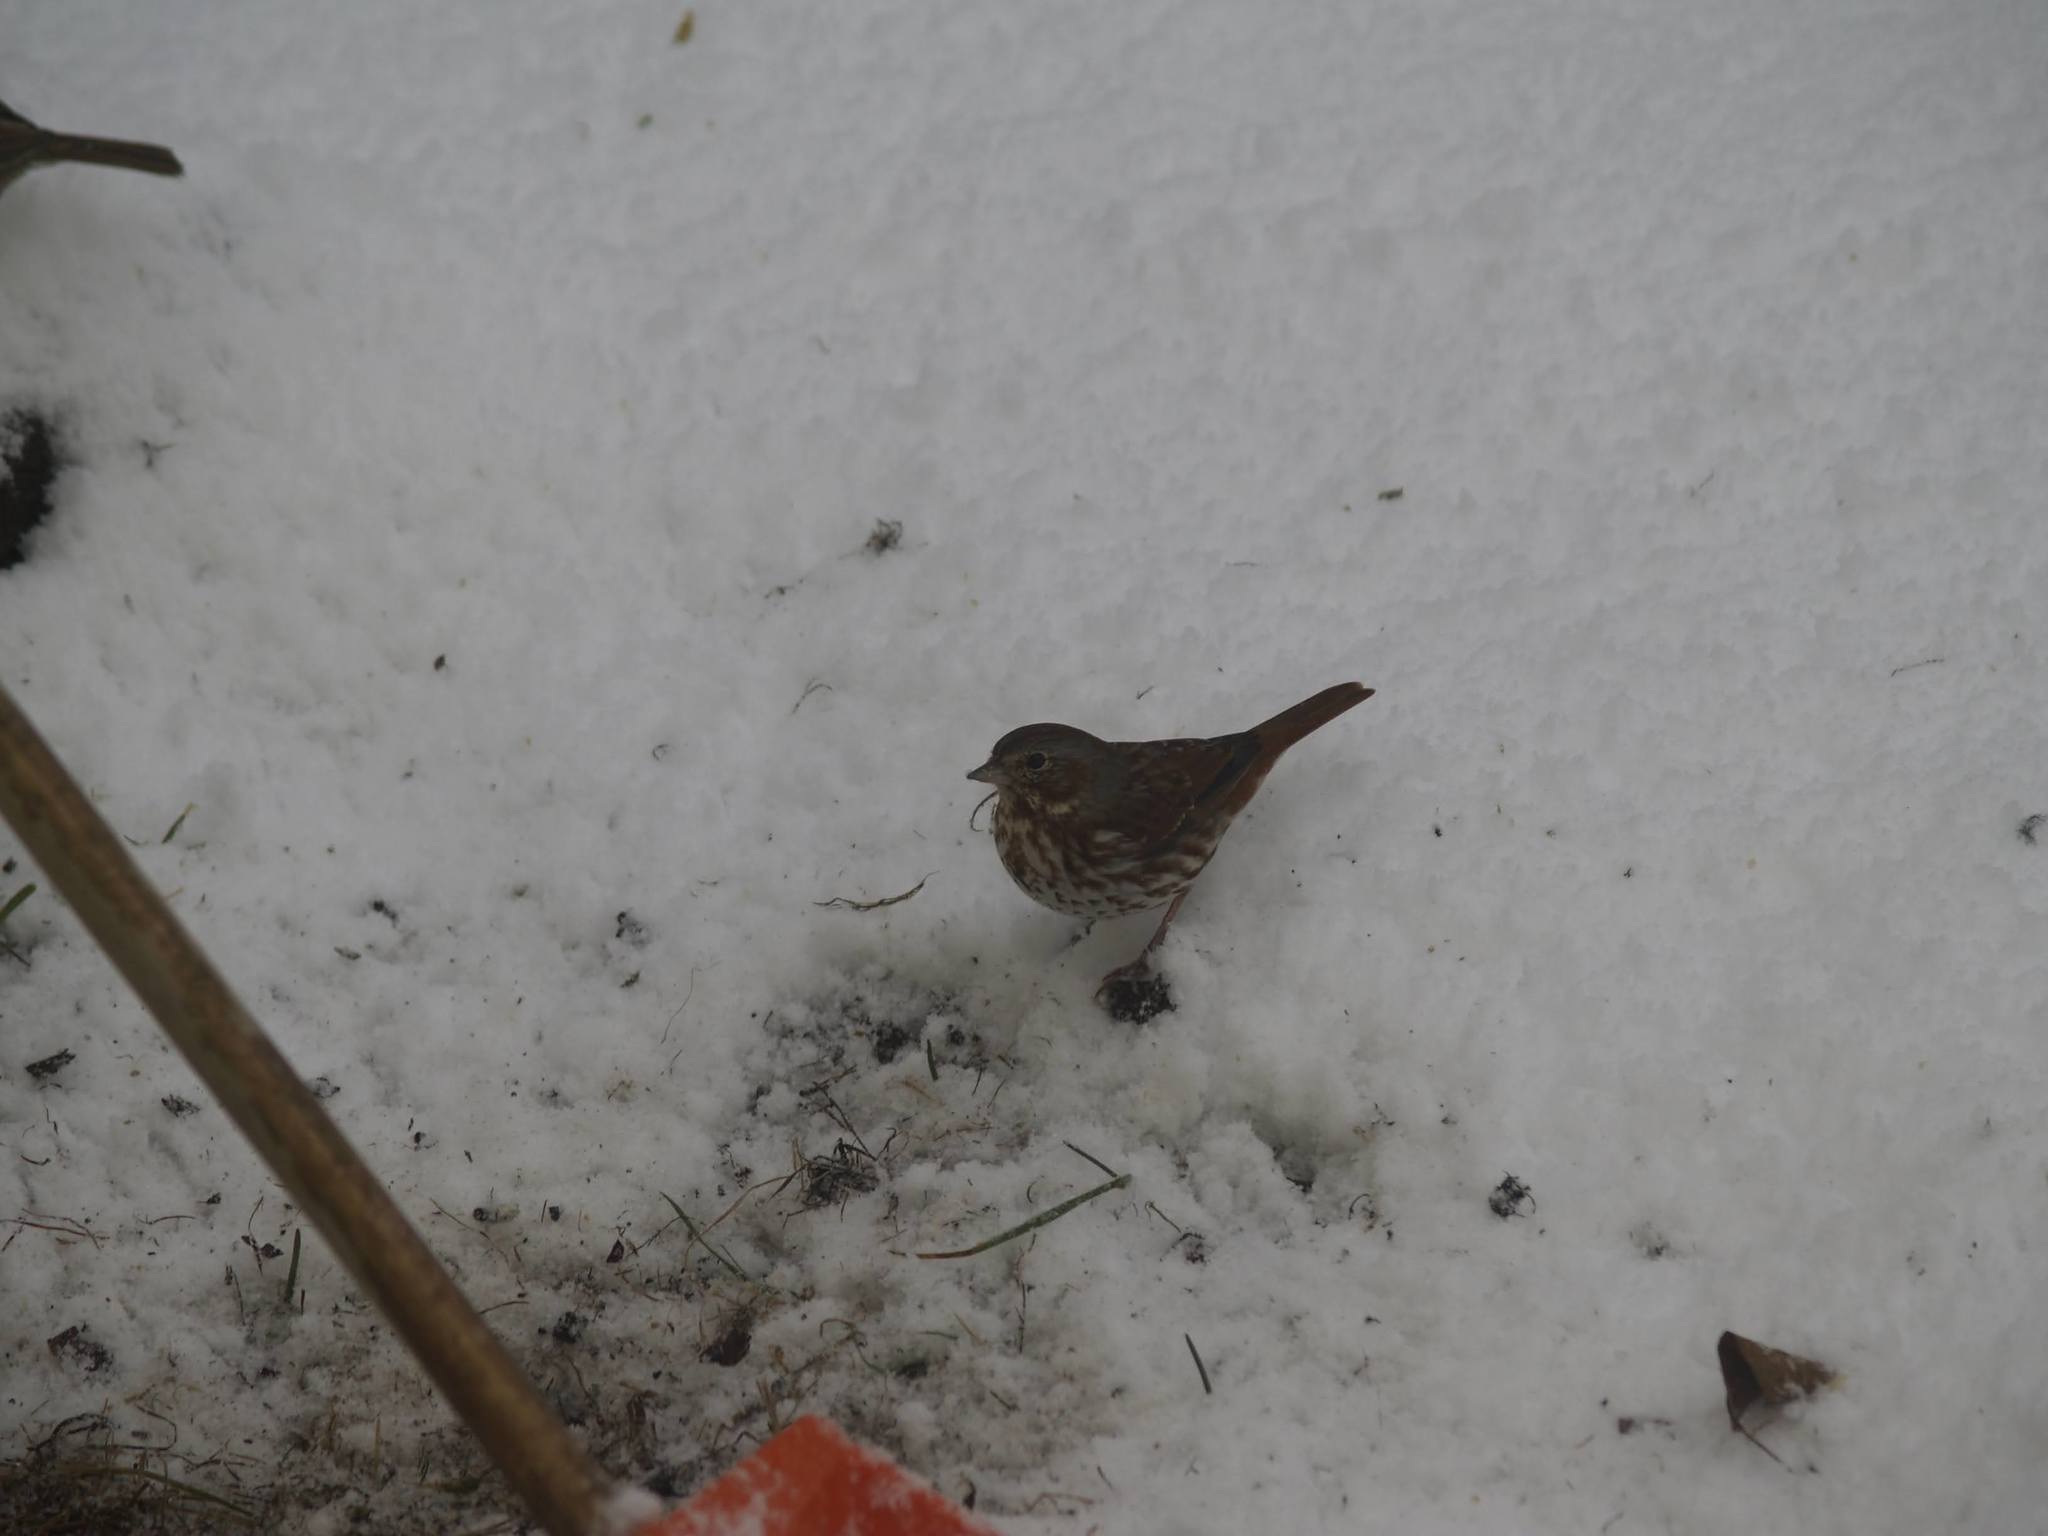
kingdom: Animalia
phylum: Chordata
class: Aves
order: Passeriformes
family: Passerellidae
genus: Passerella
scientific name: Passerella iliaca
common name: Fox sparrow
